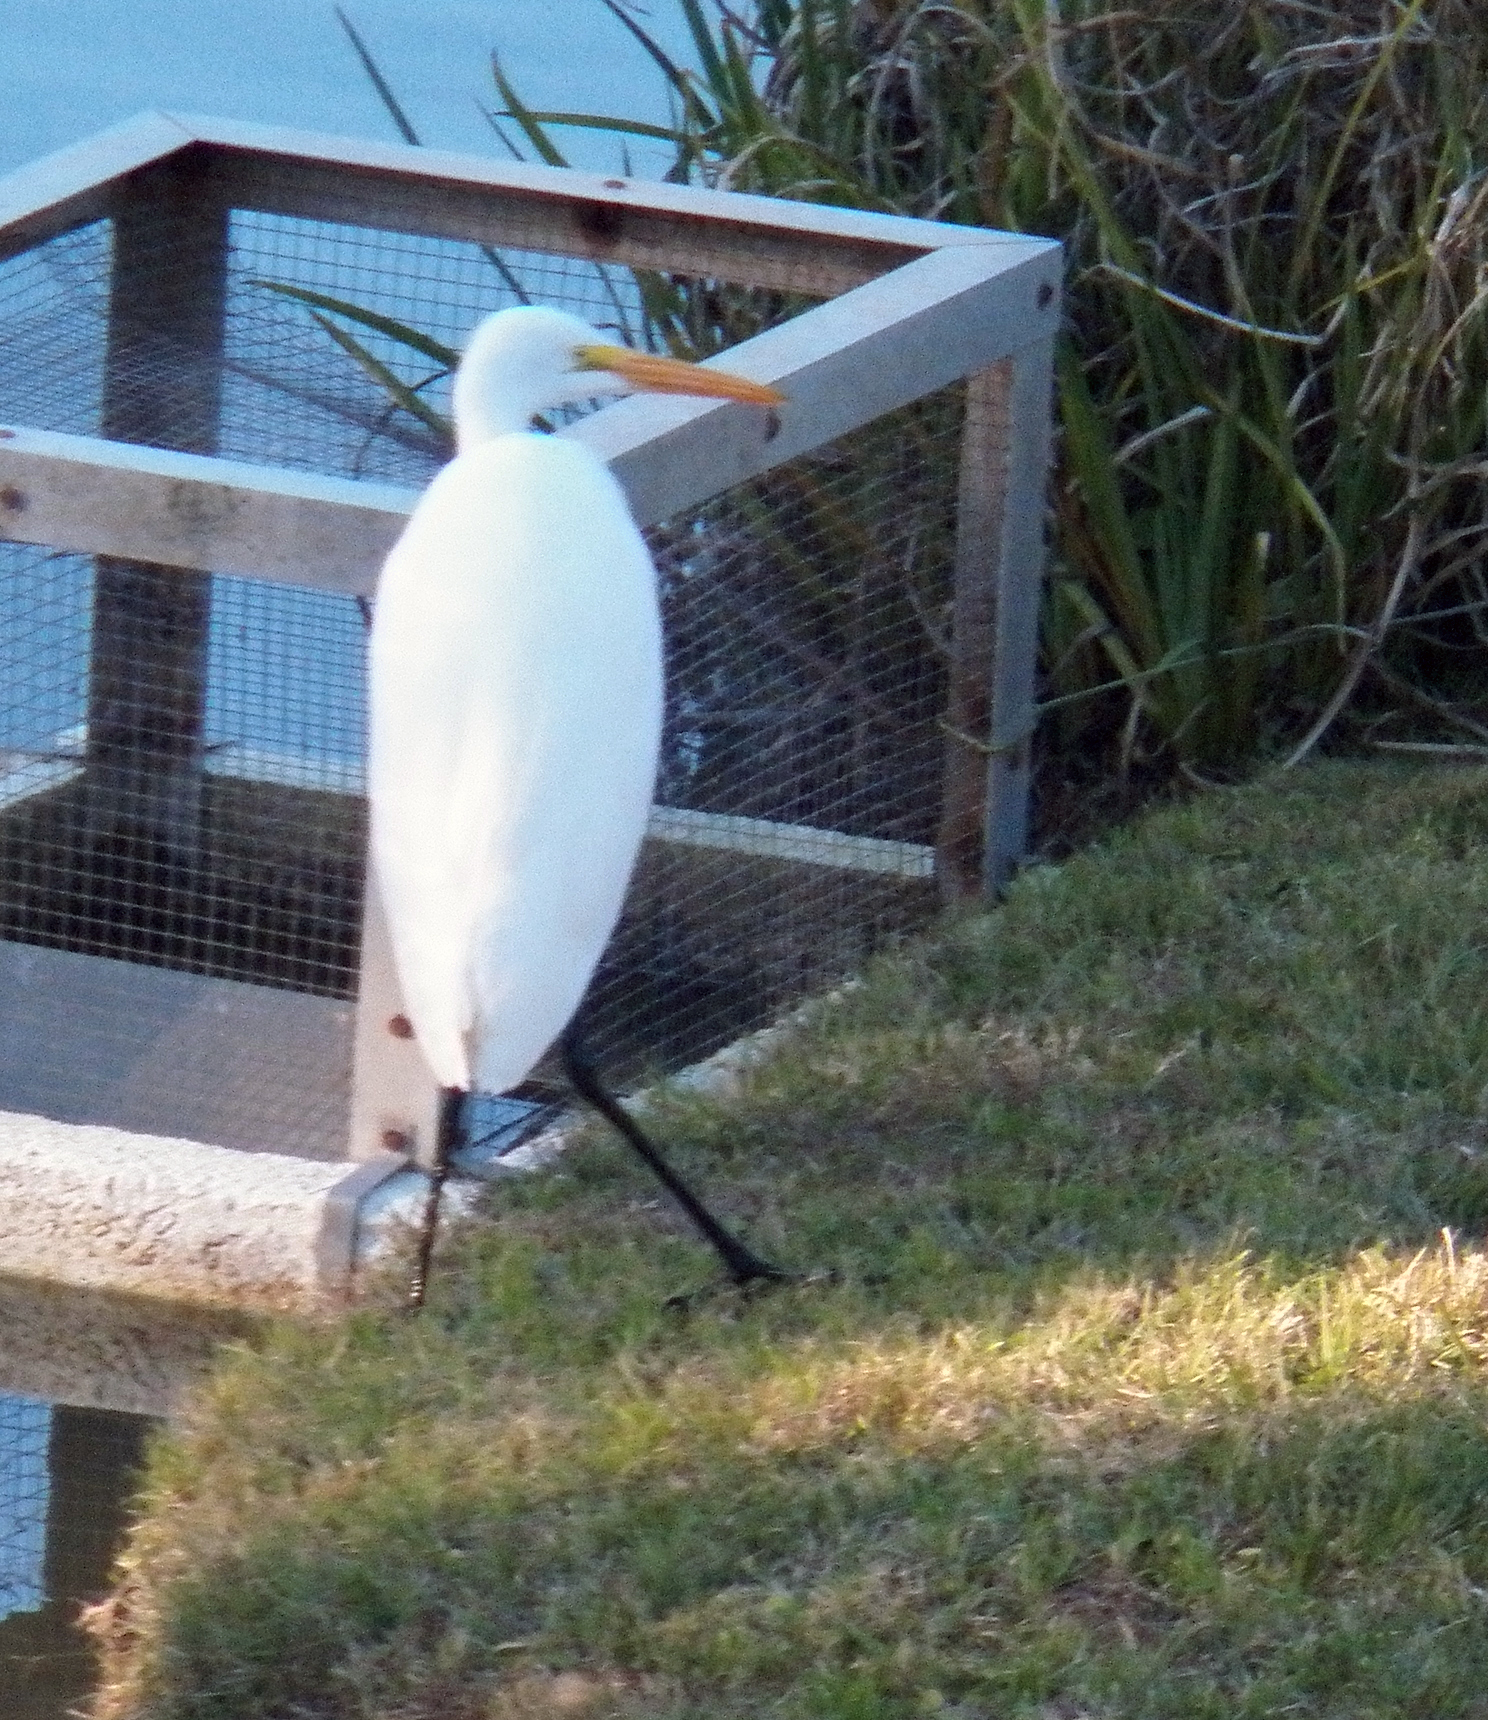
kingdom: Animalia
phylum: Chordata
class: Aves
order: Pelecaniformes
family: Ardeidae
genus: Ardea
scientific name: Ardea alba
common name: Great egret
